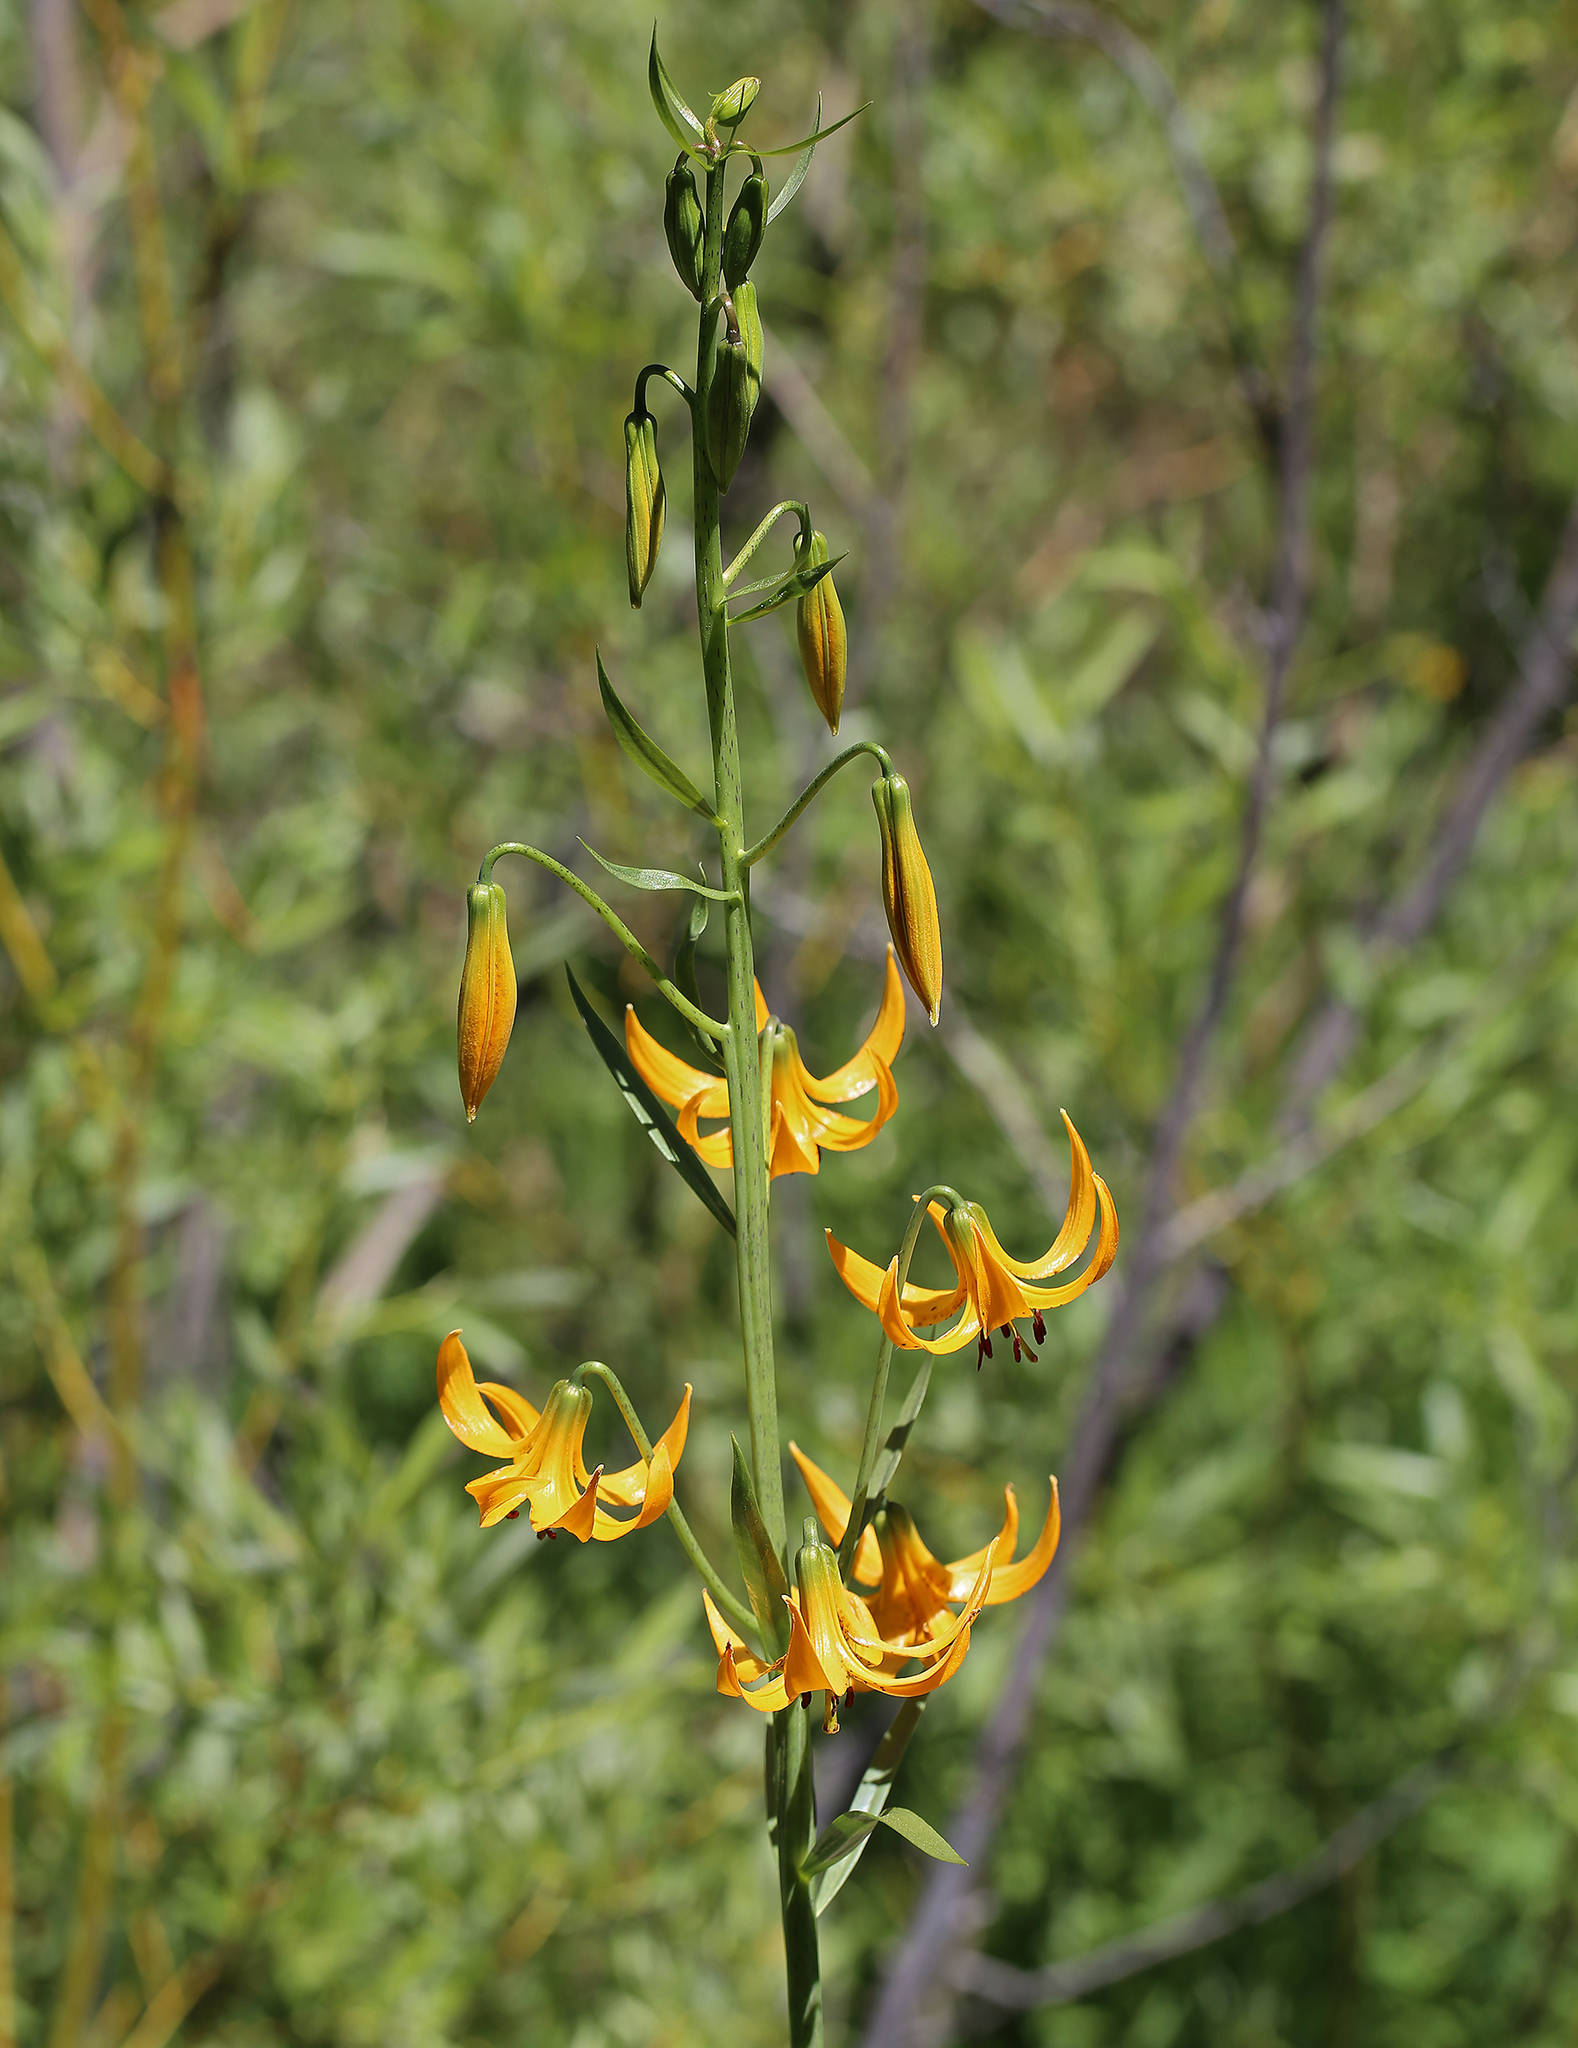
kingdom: Plantae
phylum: Tracheophyta
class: Liliopsida
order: Liliales
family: Liliaceae
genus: Lilium
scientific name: Lilium kelleyanum
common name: Kelley's lily
